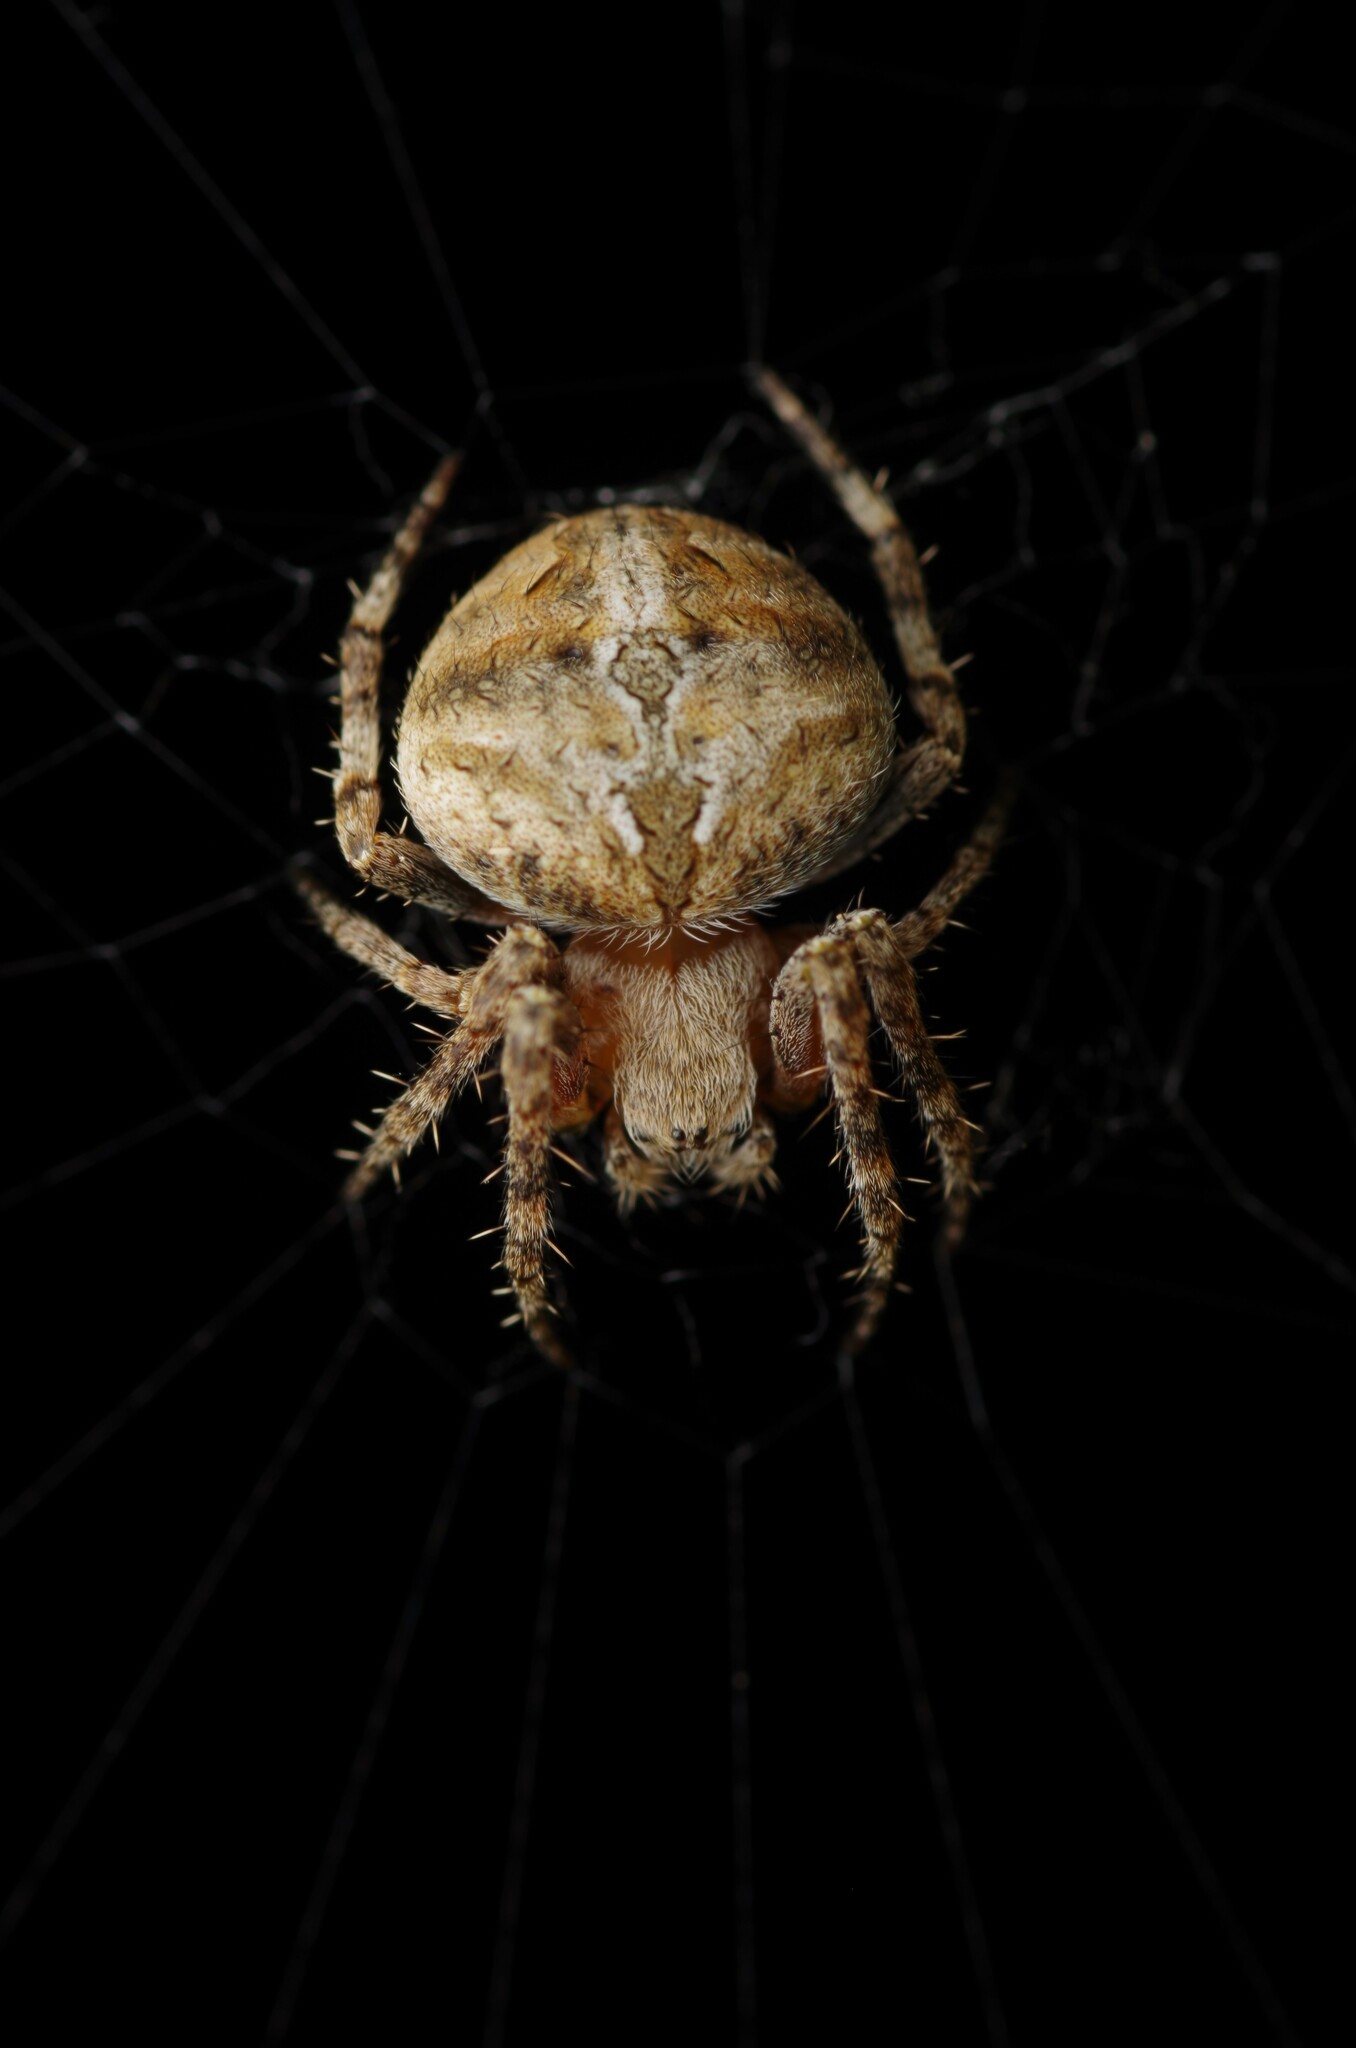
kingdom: Animalia
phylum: Arthropoda
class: Arachnida
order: Araneae
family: Araneidae
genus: Neoscona
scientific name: Neoscona subfusca
